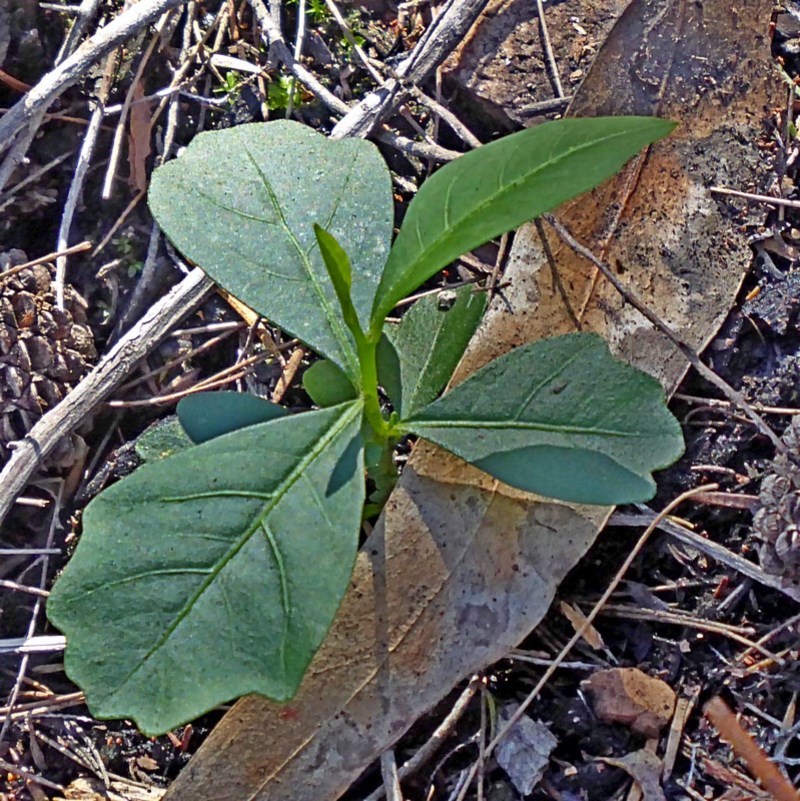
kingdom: Plantae
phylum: Tracheophyta
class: Magnoliopsida
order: Sapindales
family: Sapindaceae
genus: Dodonaea
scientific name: Dodonaea triquetra
